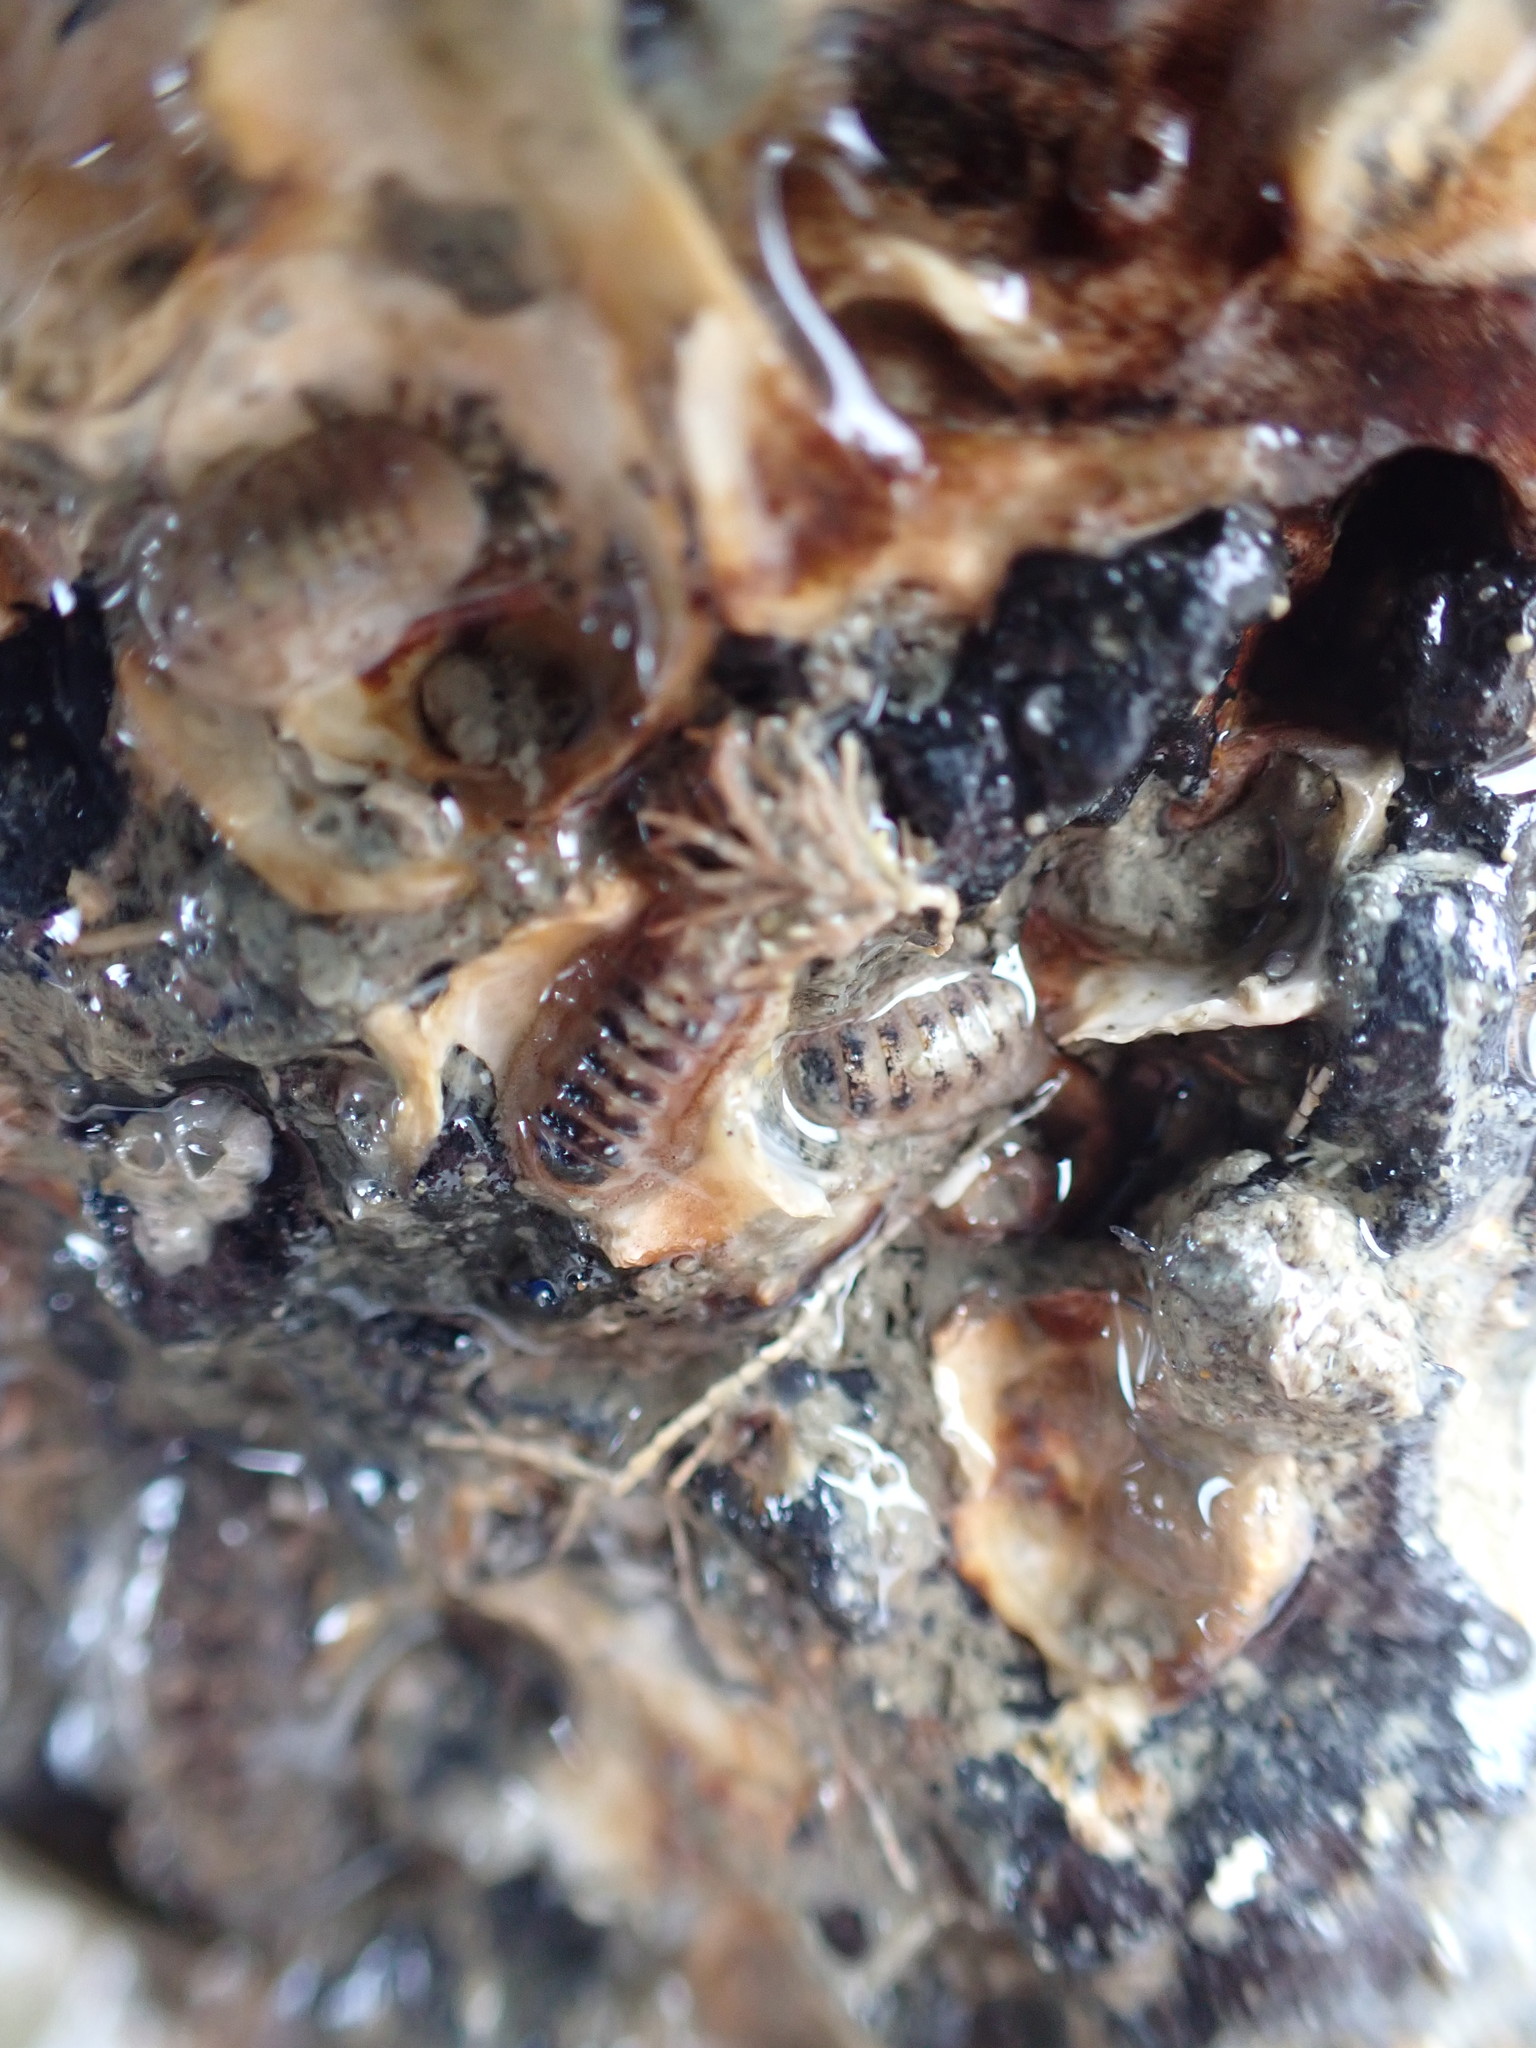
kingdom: Animalia
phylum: Mollusca
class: Polyplacophora
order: Lepidopleurida
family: Leptochitonidae
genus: Leptochiton
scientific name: Leptochiton inquinatus
